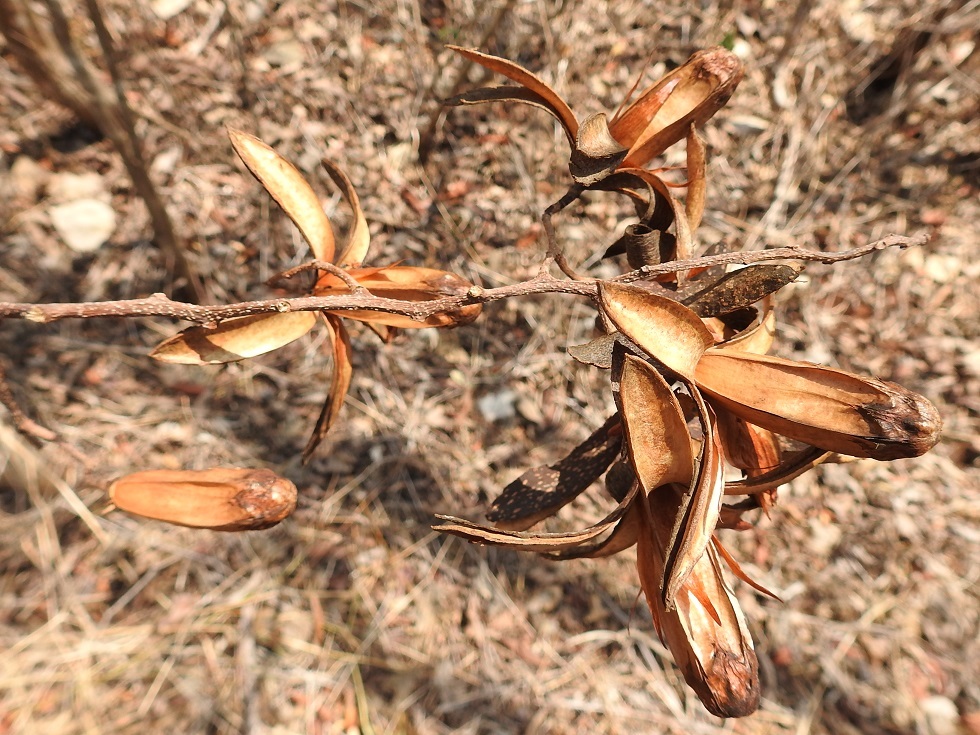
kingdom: Plantae
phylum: Tracheophyta
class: Magnoliopsida
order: Sapindales
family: Meliaceae
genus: Cedrela
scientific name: Cedrela salvadorensis
